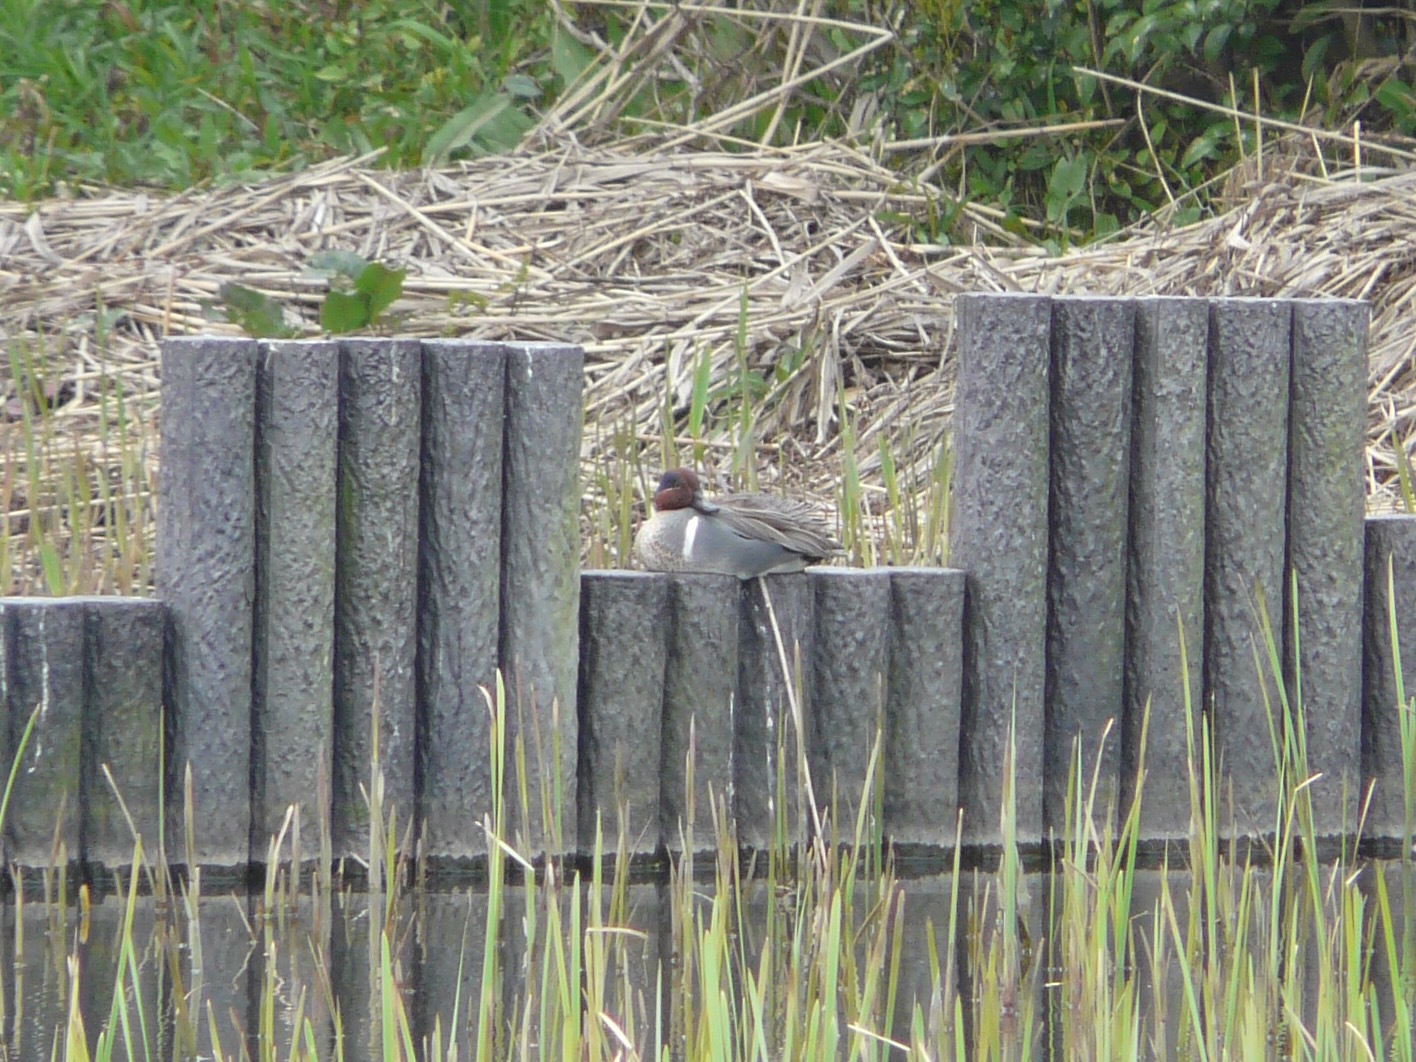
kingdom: Animalia
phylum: Chordata
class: Aves
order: Anseriformes
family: Anatidae
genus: Anas
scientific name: Anas carolinensis
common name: Green-winged teal
